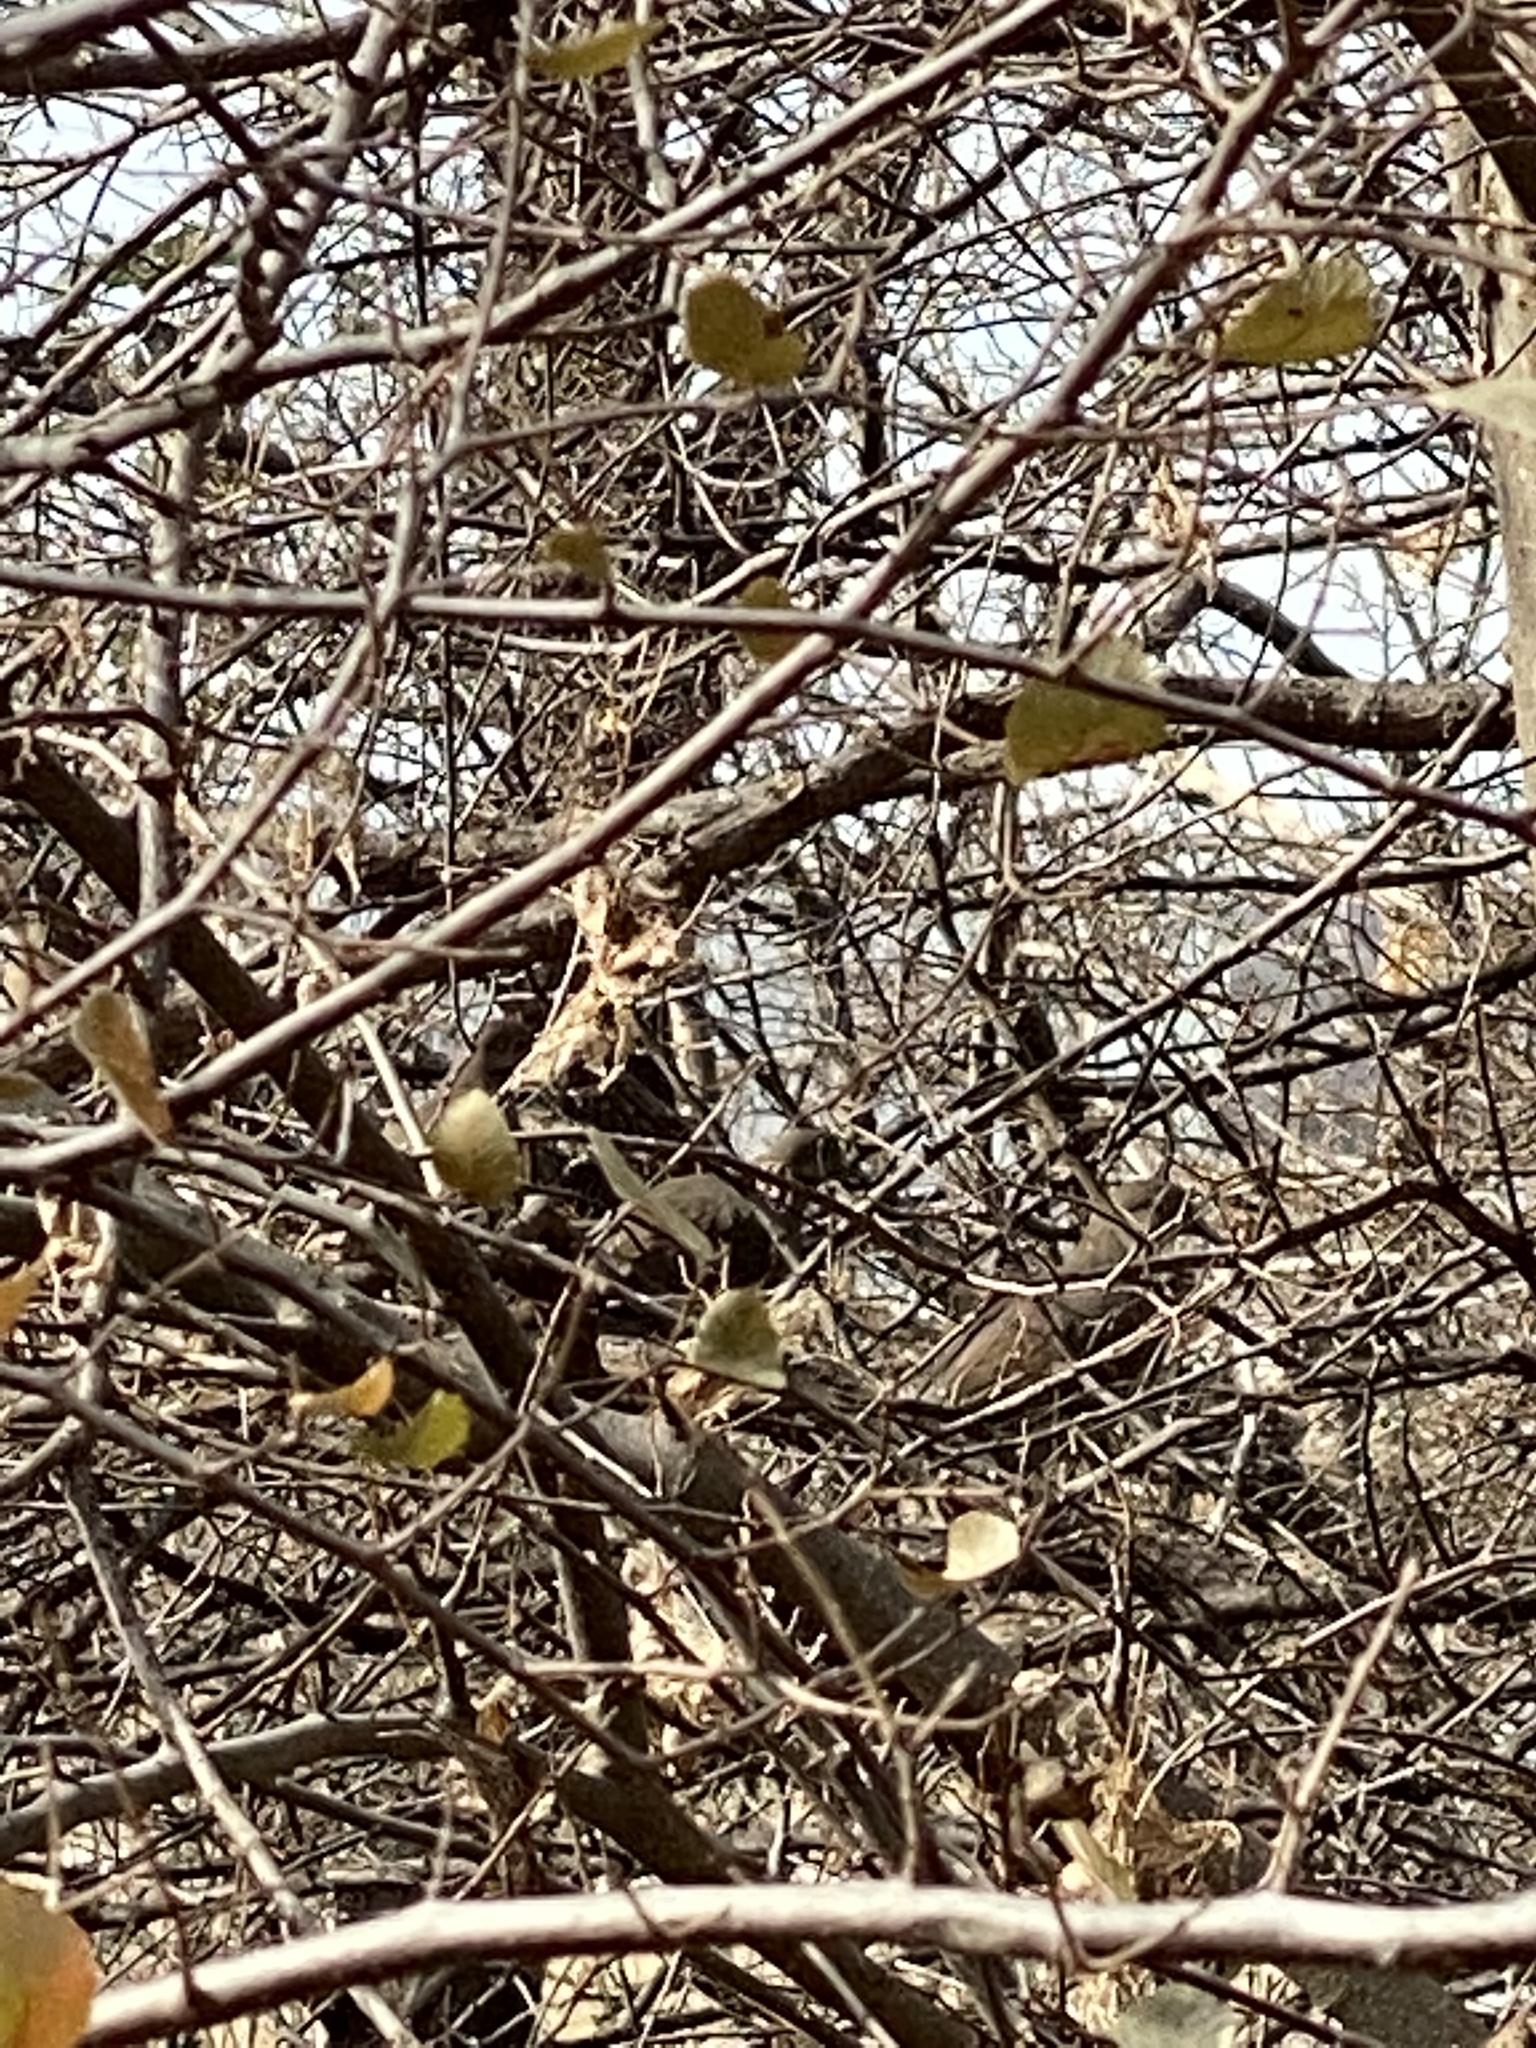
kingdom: Animalia
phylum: Chordata
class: Aves
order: Columbiformes
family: Columbidae
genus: Zenaida
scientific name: Zenaida asiatica
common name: White-winged dove
